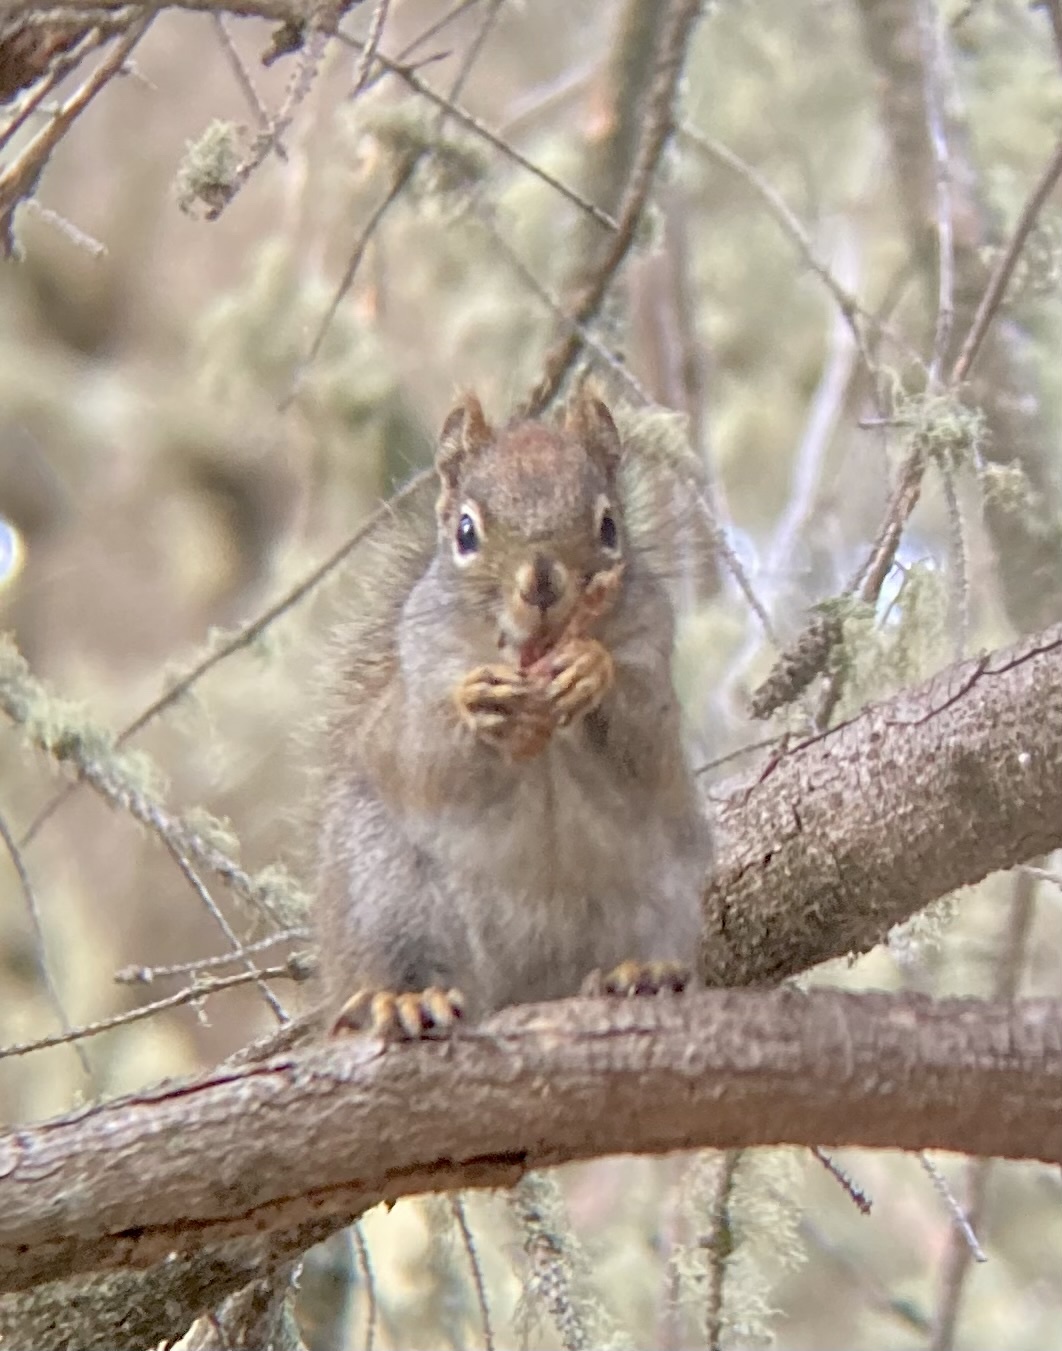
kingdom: Animalia
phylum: Chordata
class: Mammalia
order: Rodentia
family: Sciuridae
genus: Tamiasciurus
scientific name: Tamiasciurus hudsonicus
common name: Red squirrel
